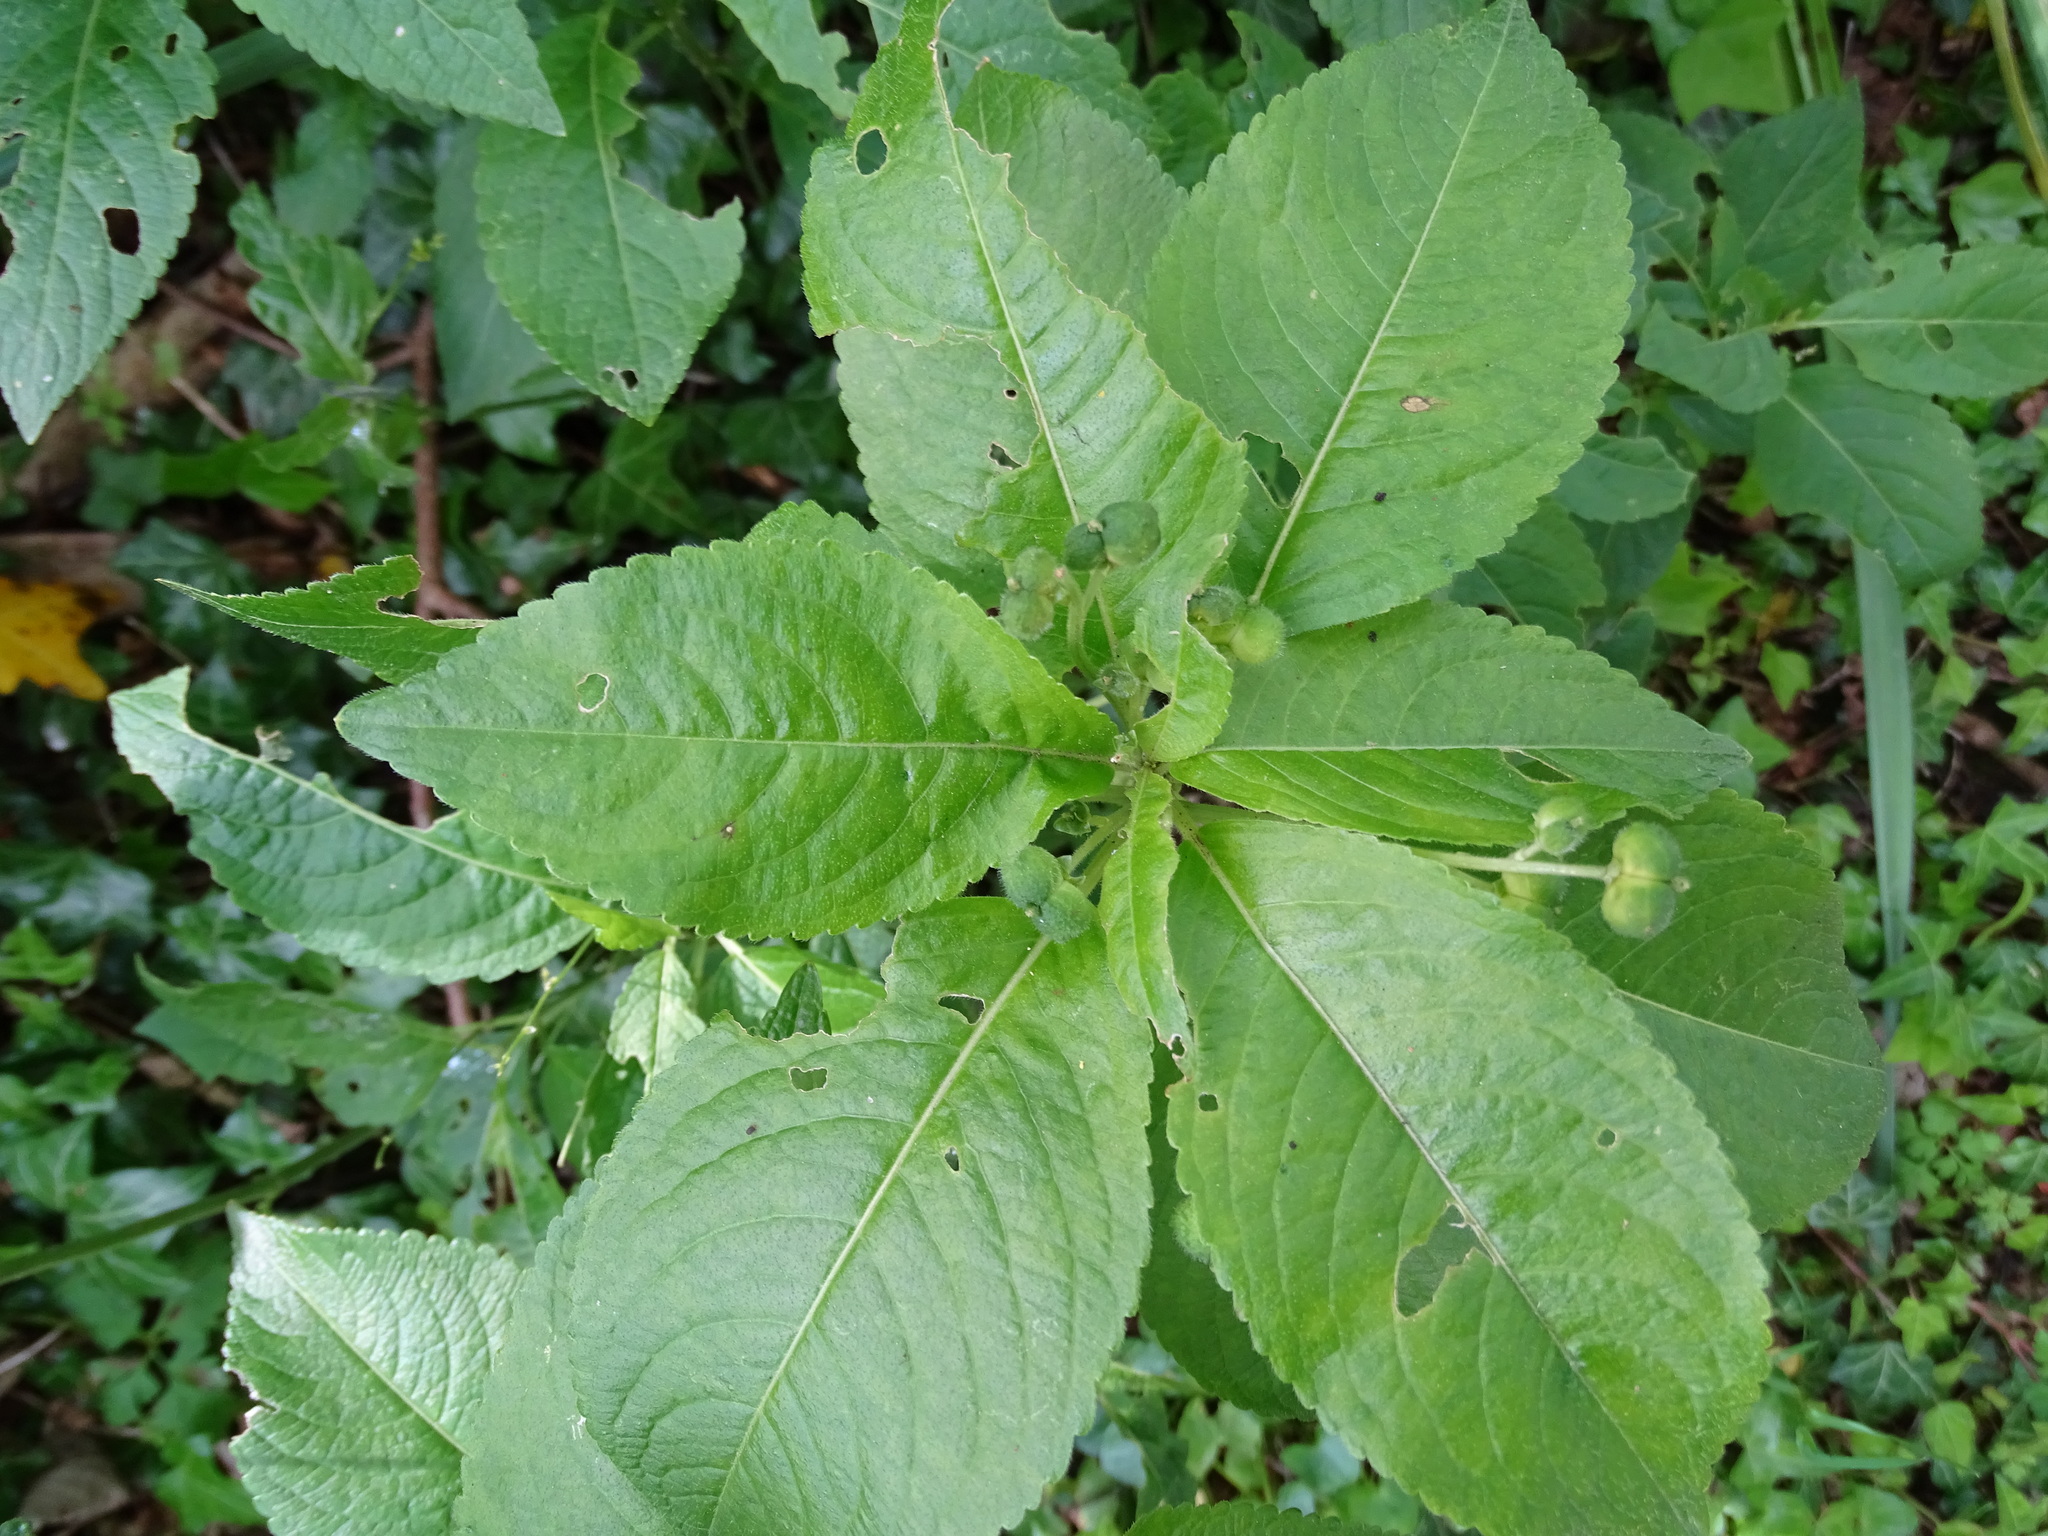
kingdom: Plantae
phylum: Tracheophyta
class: Magnoliopsida
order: Malpighiales
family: Euphorbiaceae
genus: Mercurialis
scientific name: Mercurialis perennis
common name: Dog mercury
